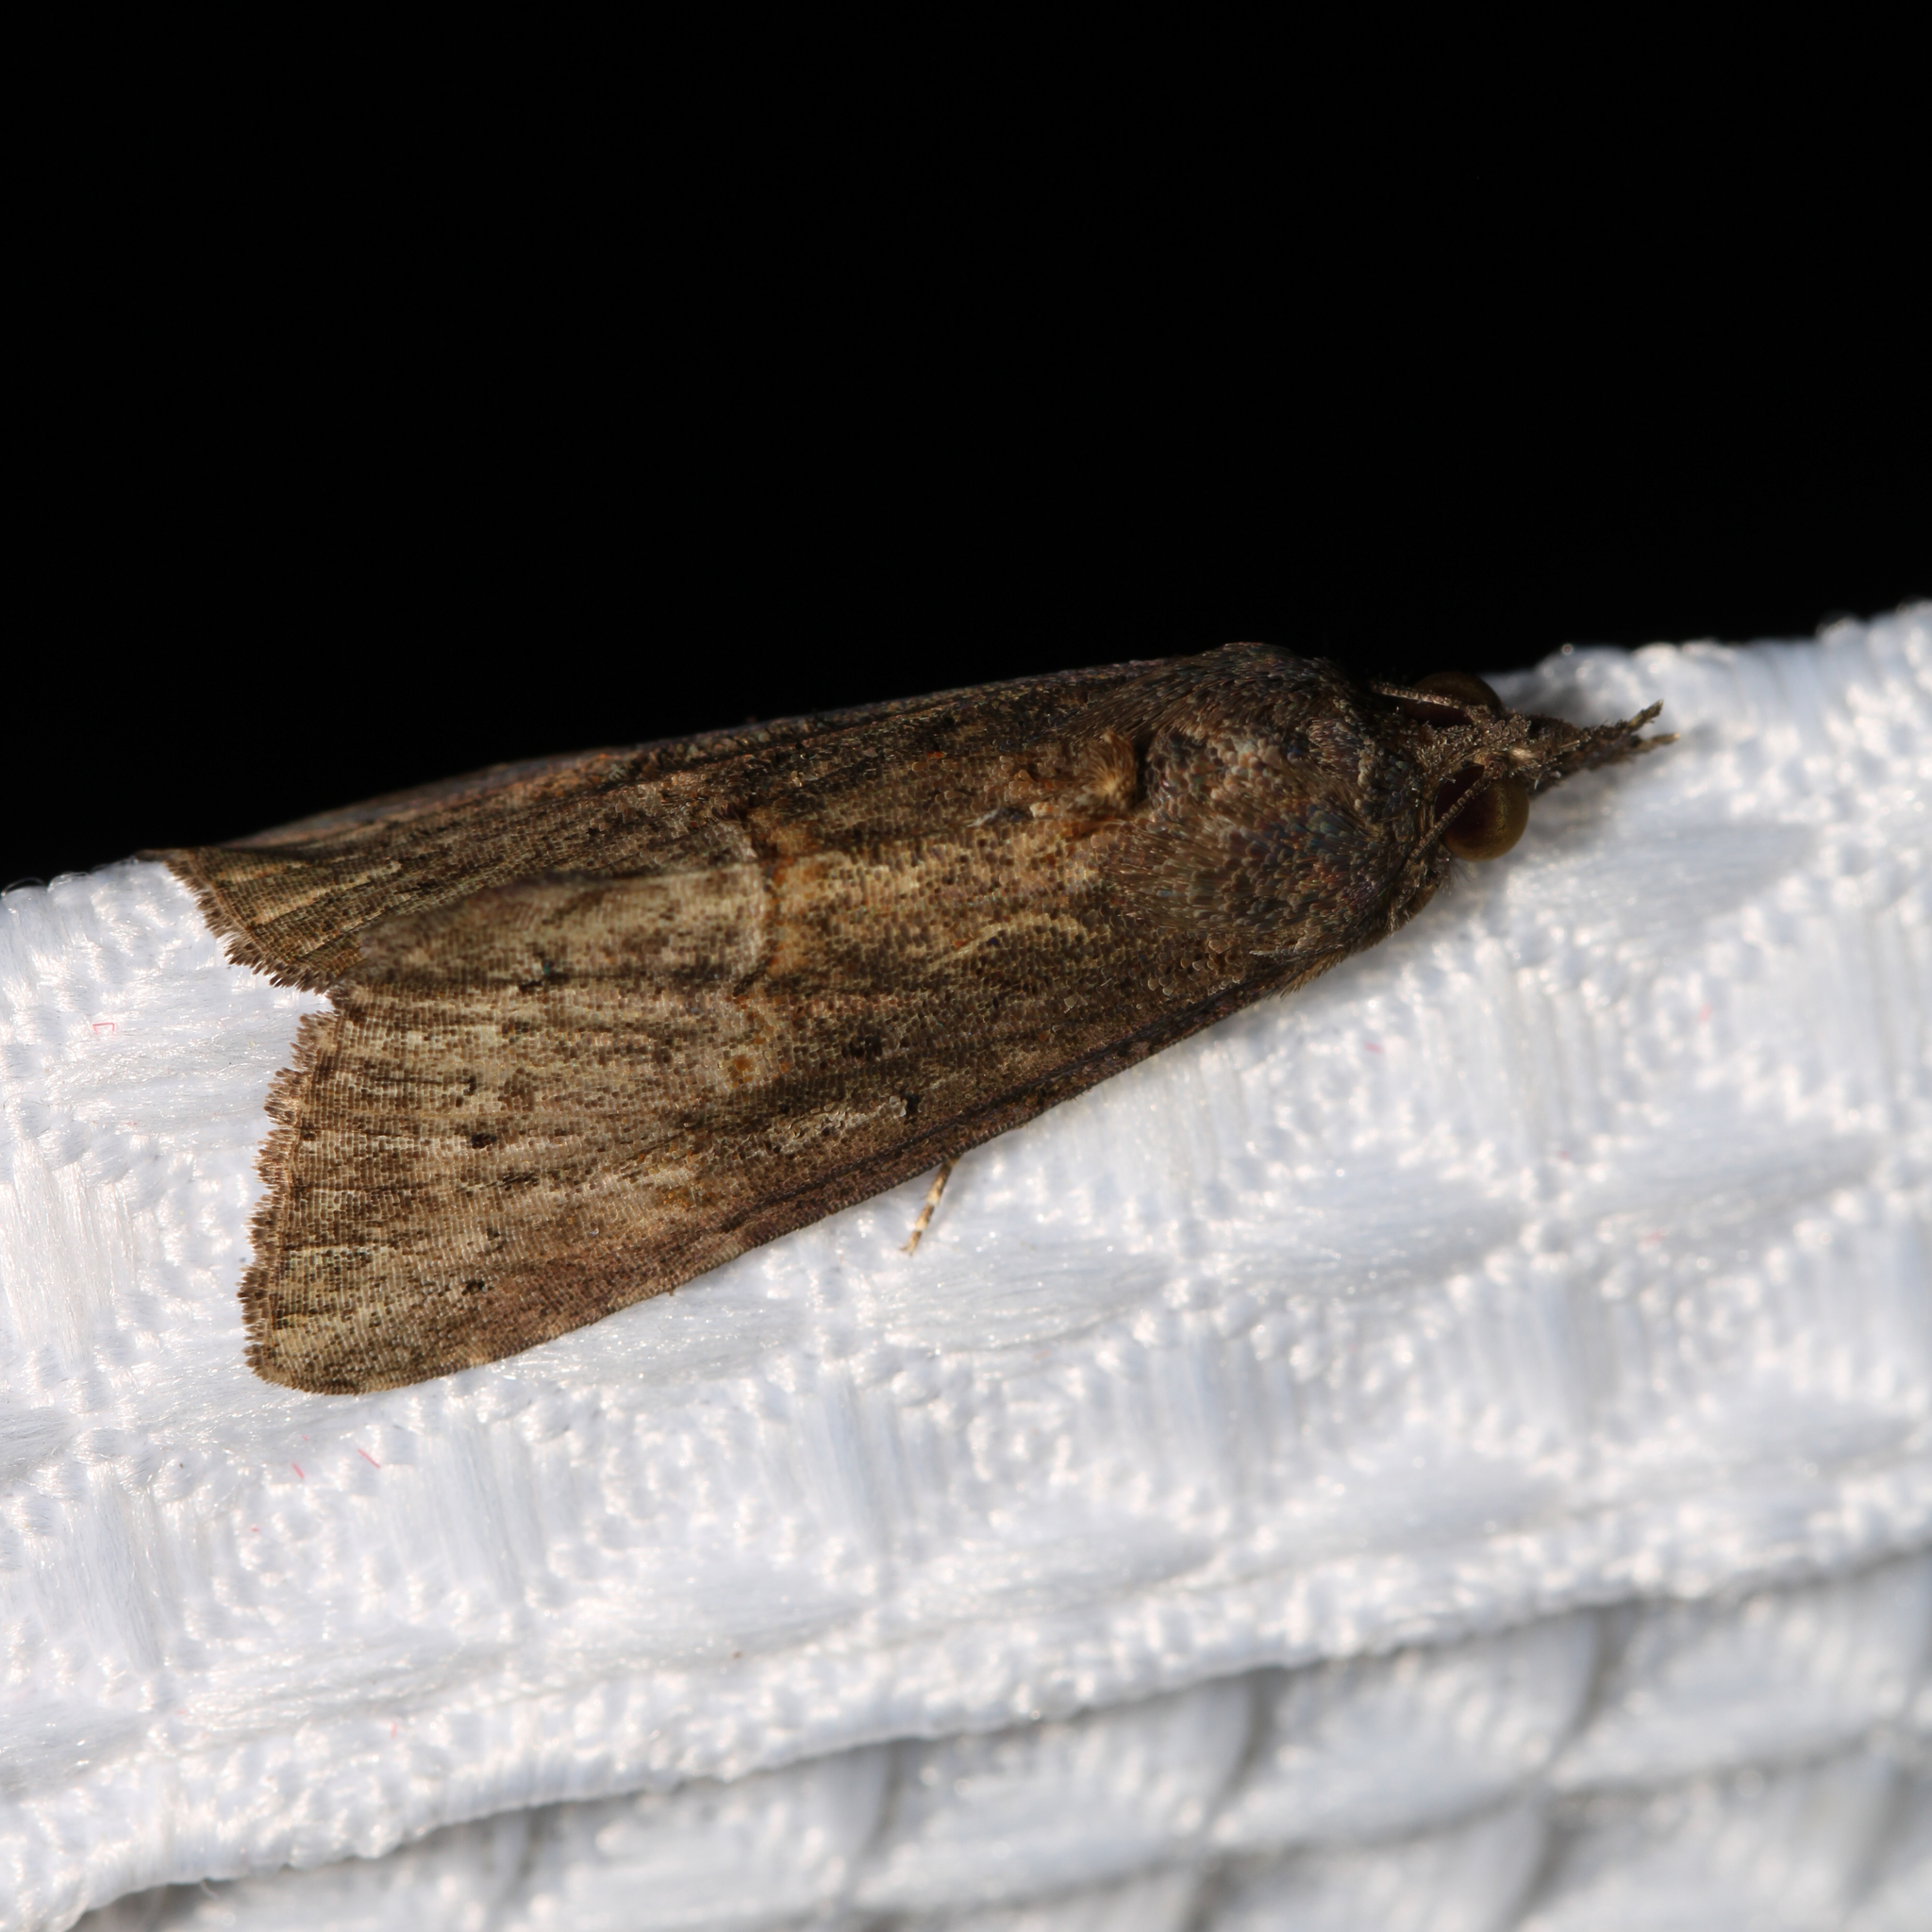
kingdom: Animalia
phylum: Arthropoda
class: Insecta
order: Lepidoptera
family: Erebidae
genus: Hypena
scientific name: Hypena scabra
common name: Green cloverworm
